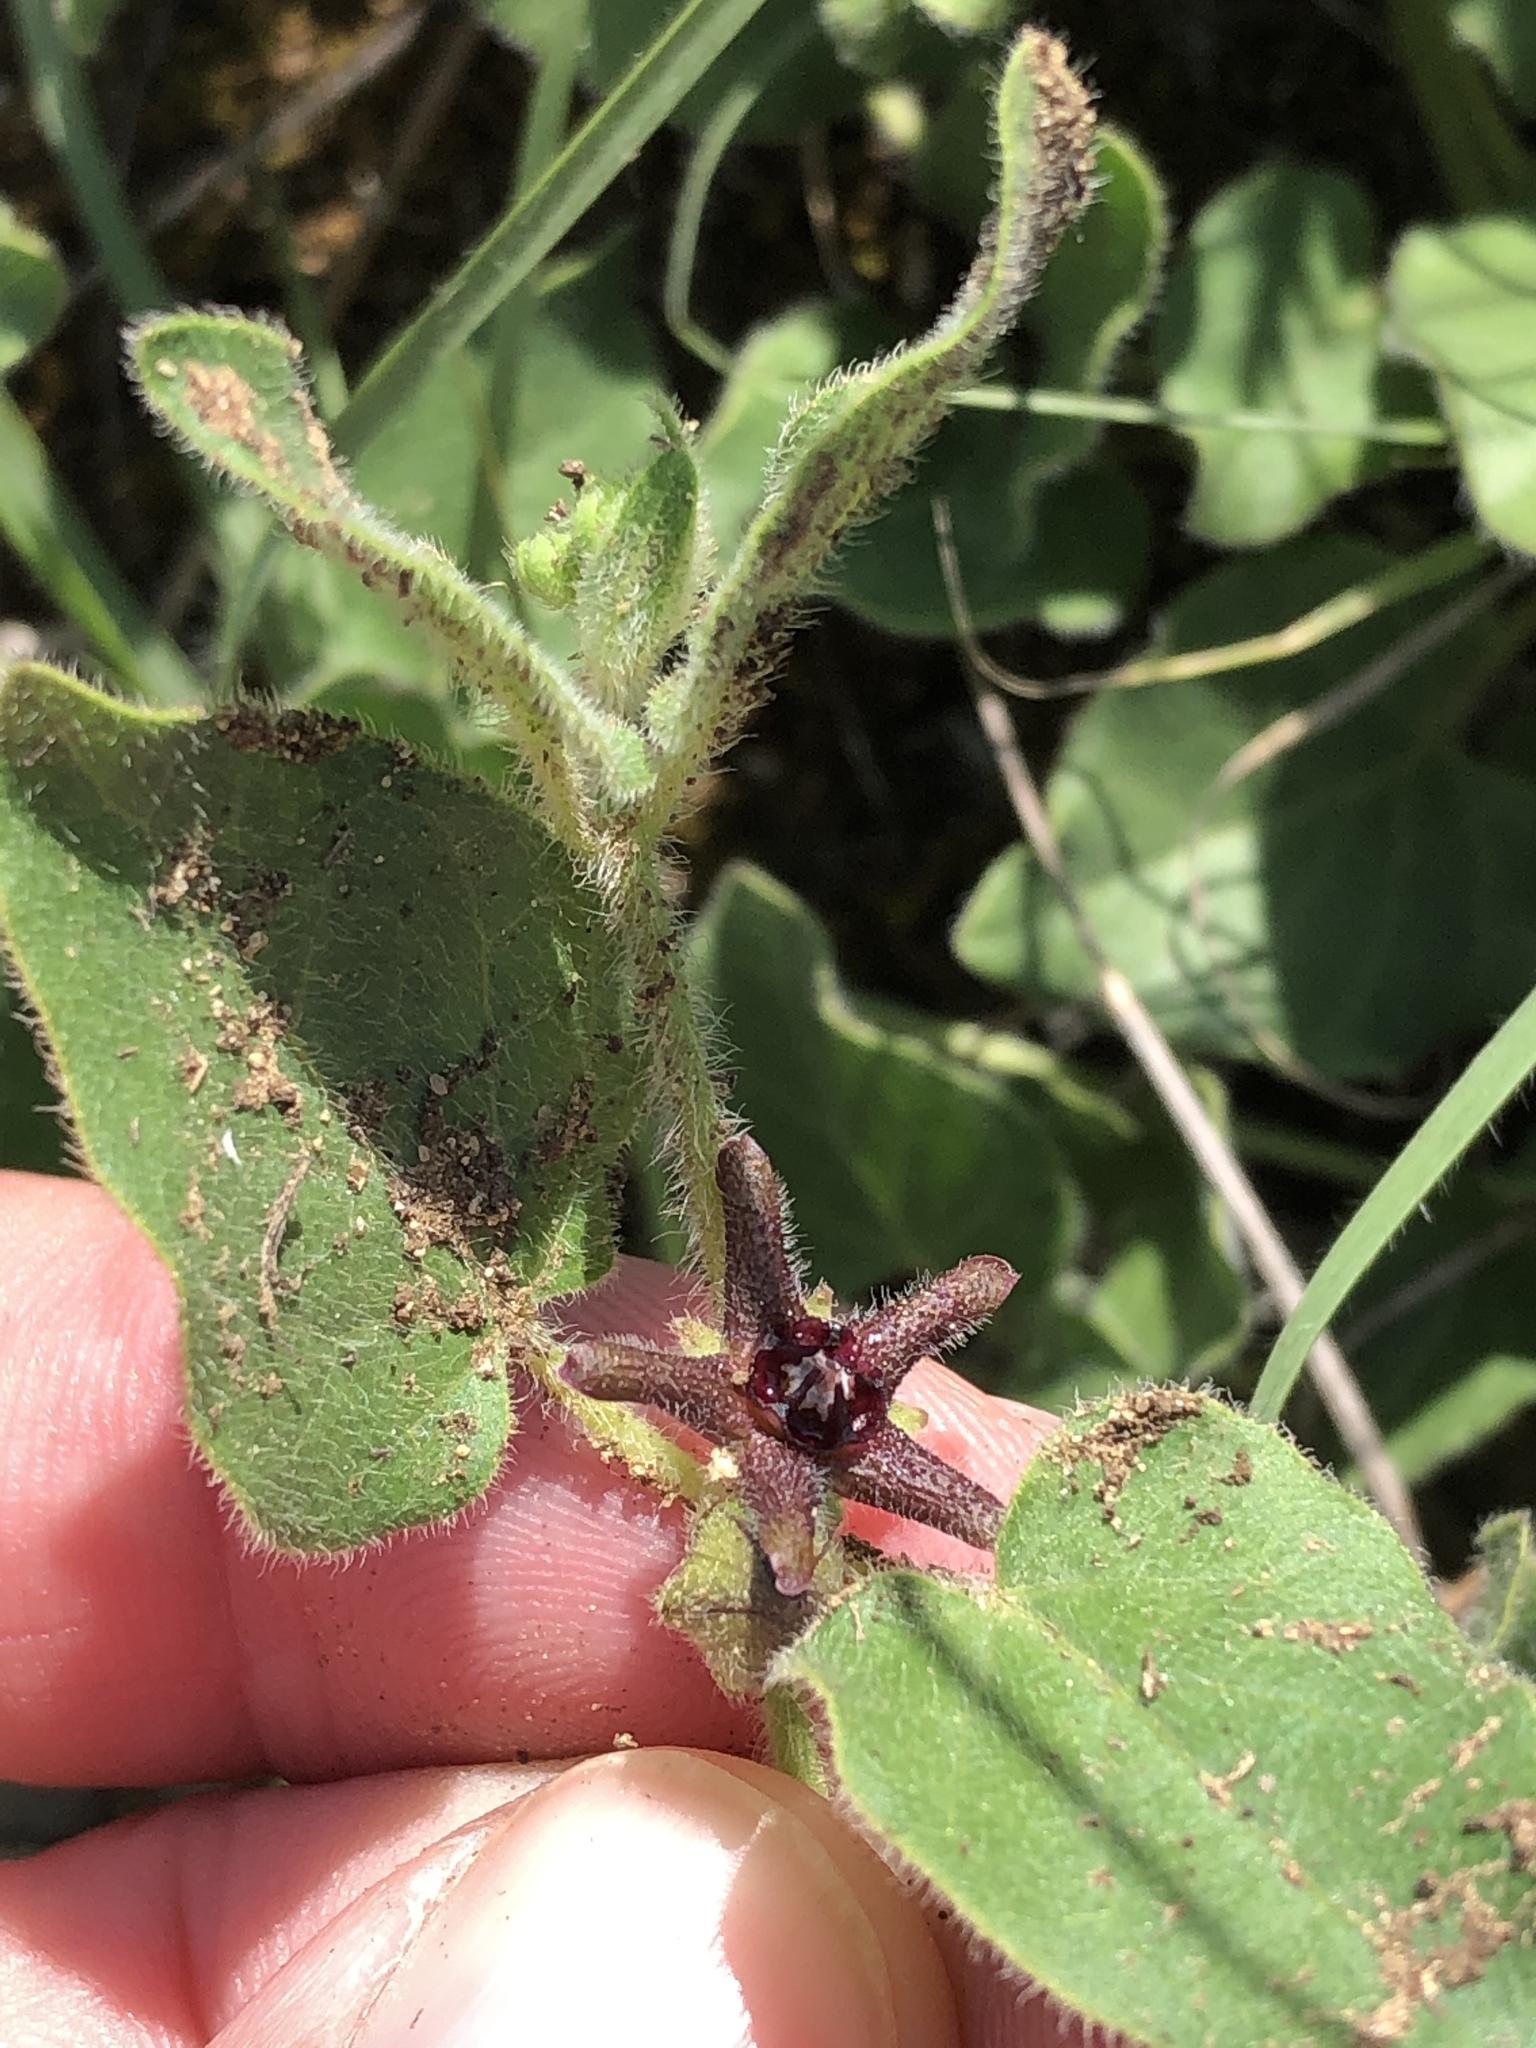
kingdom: Plantae
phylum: Tracheophyta
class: Magnoliopsida
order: Gentianales
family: Apocynaceae
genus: Chthamalia
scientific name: Chthamalia biflora
